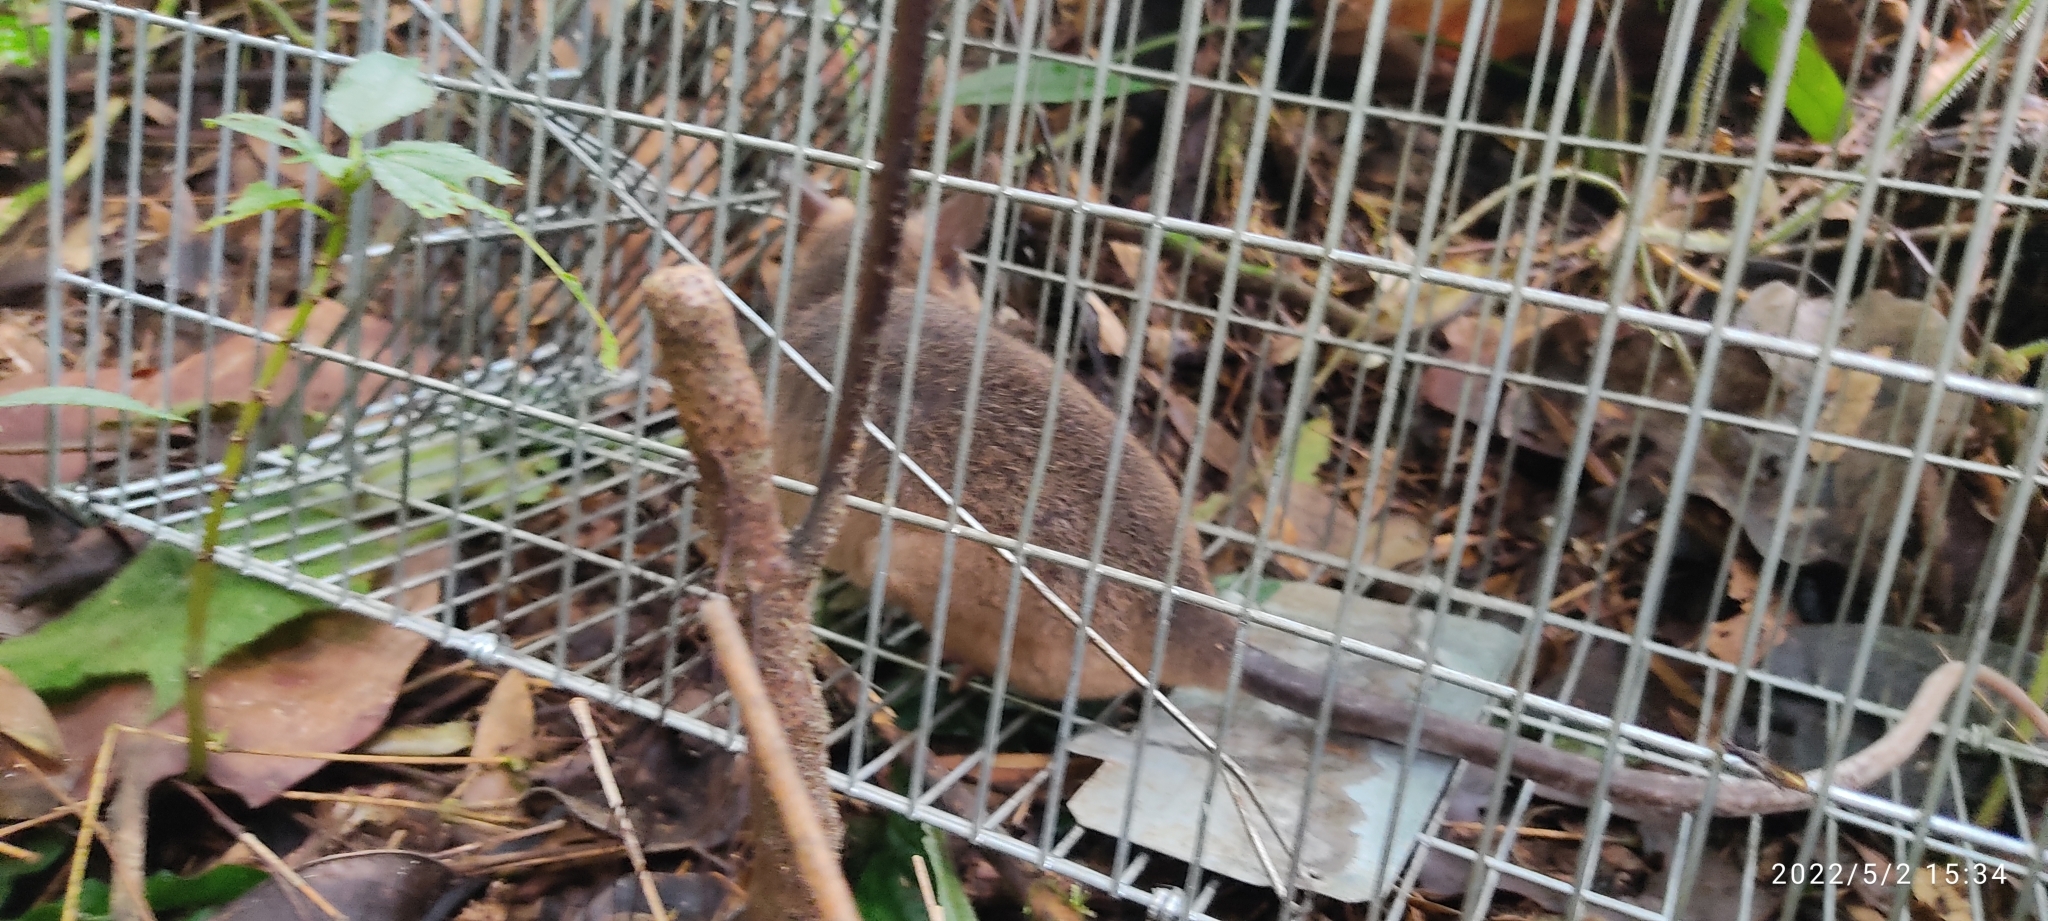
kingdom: Animalia
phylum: Chordata
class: Mammalia
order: Didelphimorphia
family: Didelphidae
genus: Metachirus
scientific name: Metachirus nudicaudatus
